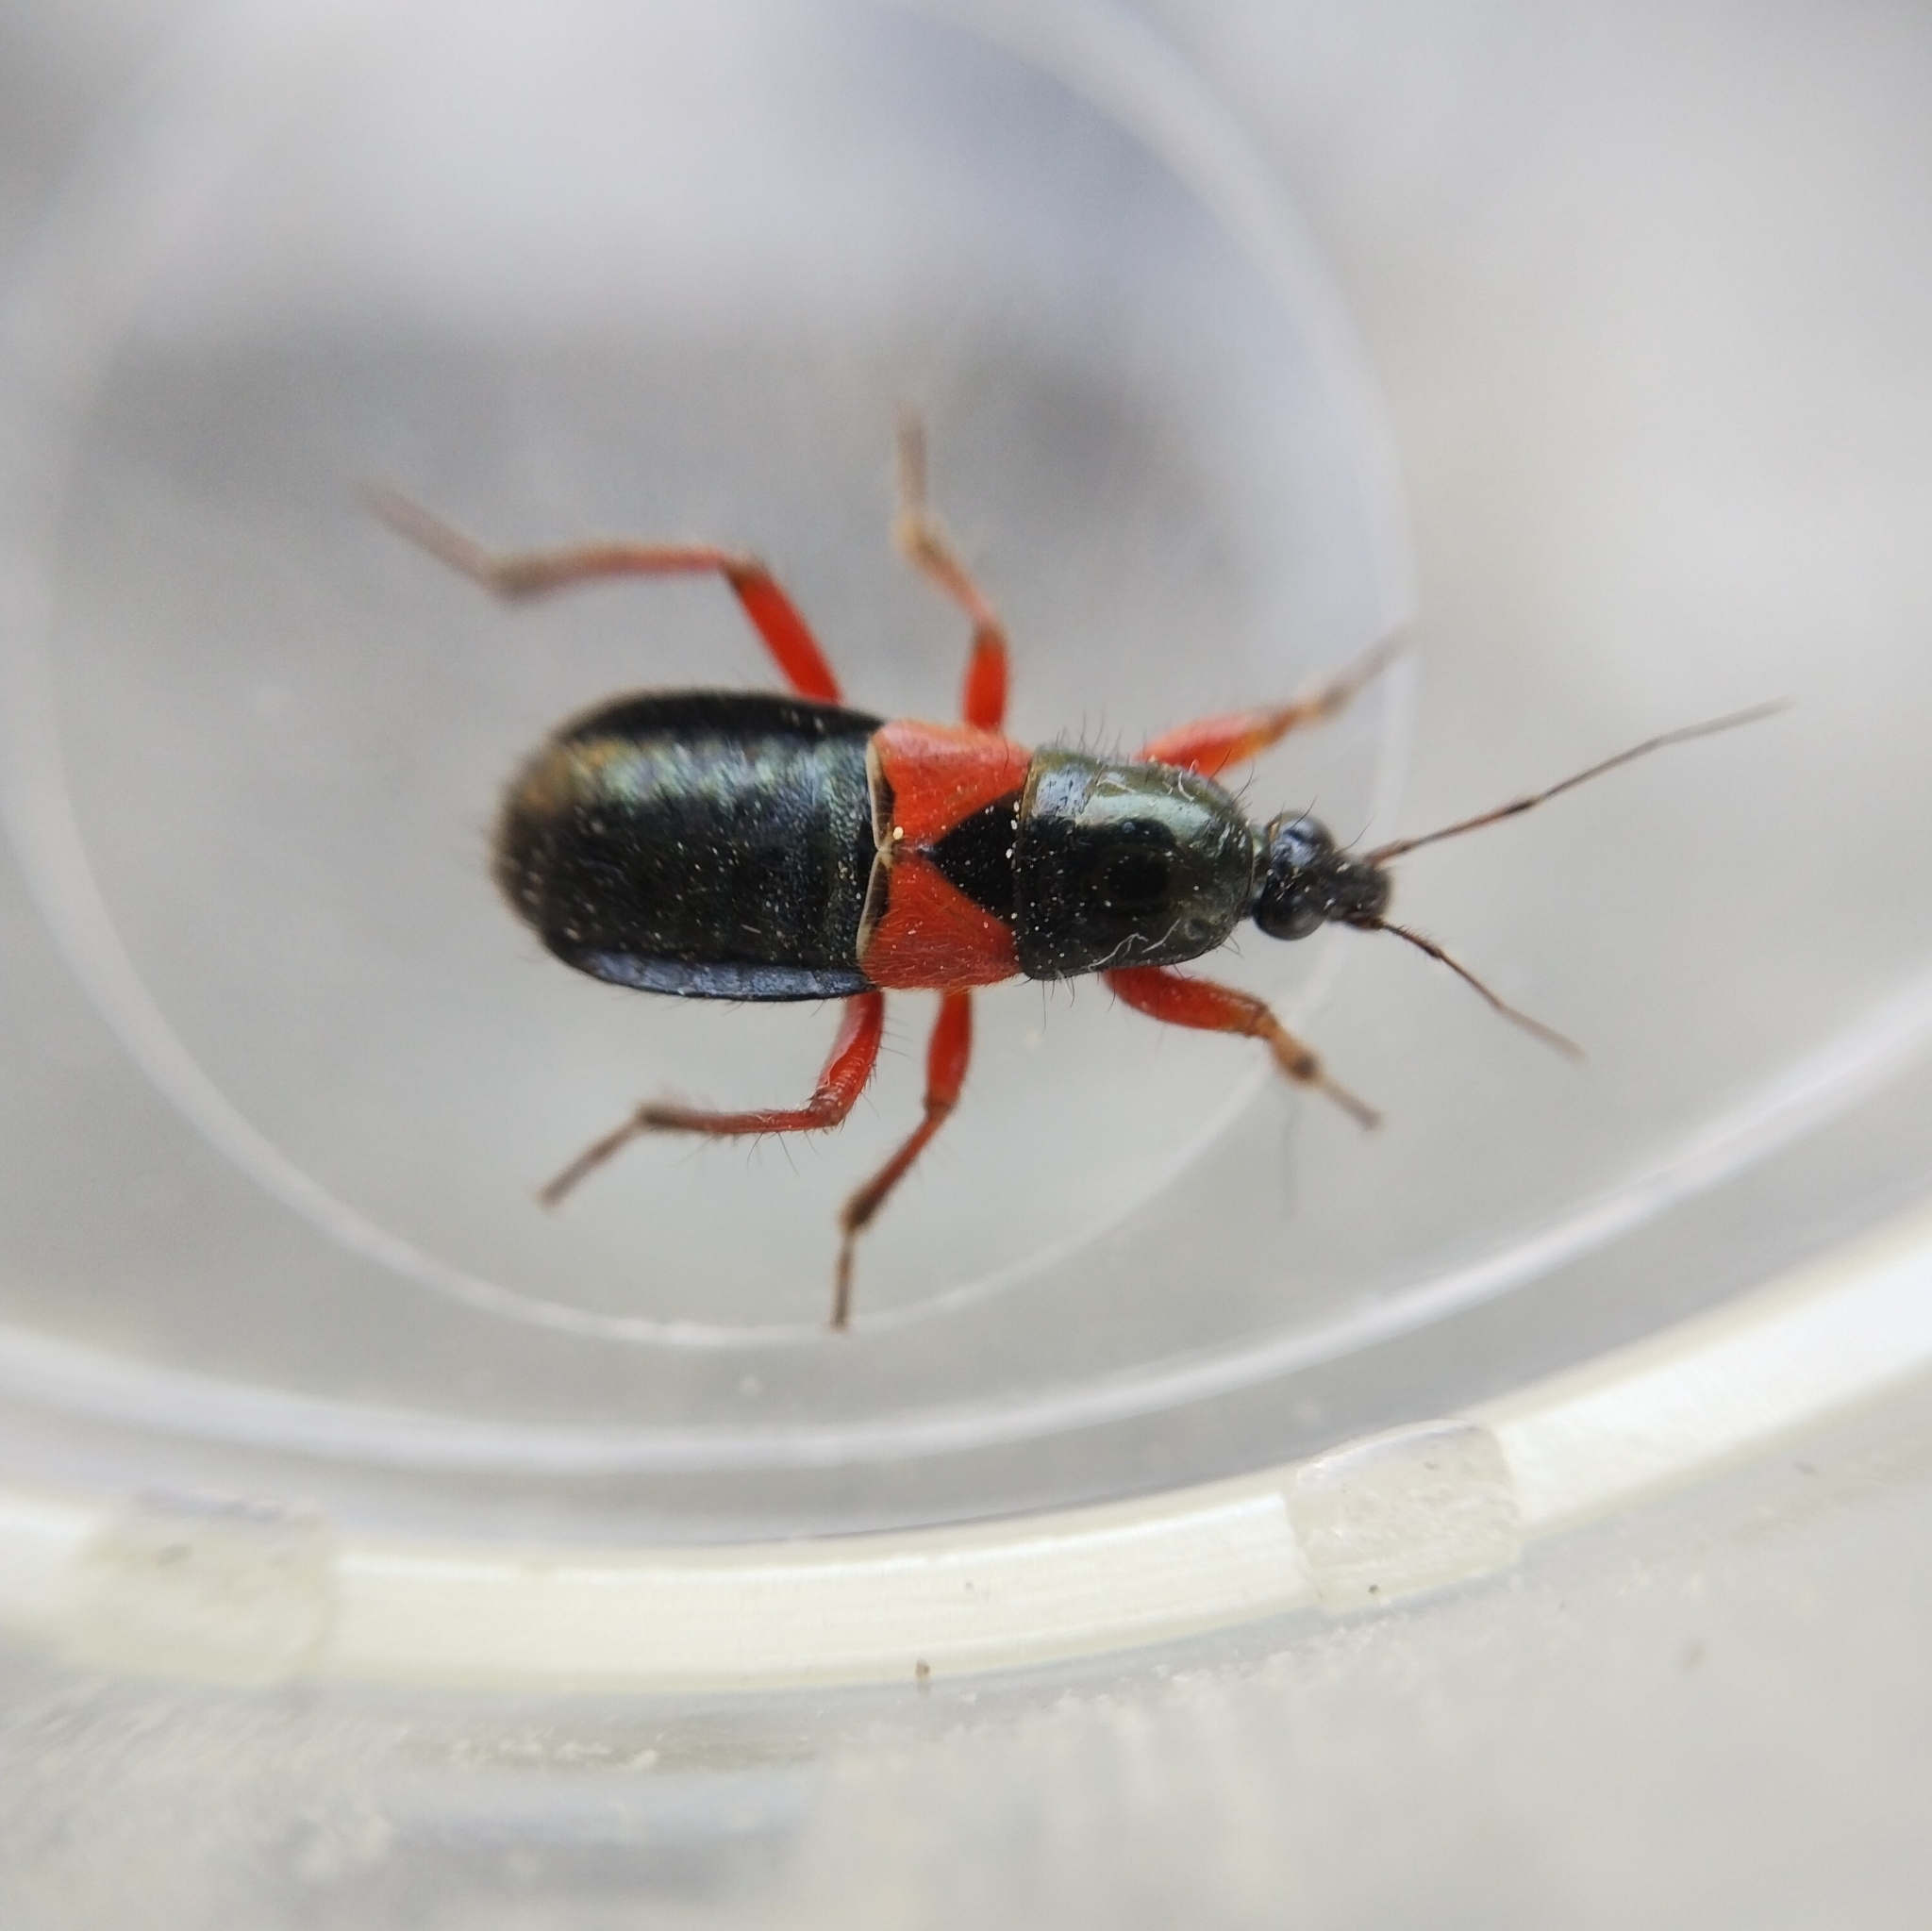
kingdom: Animalia
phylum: Arthropoda
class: Insecta
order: Hemiptera
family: Nabidae
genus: Prostemma
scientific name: Prostemma guttula
